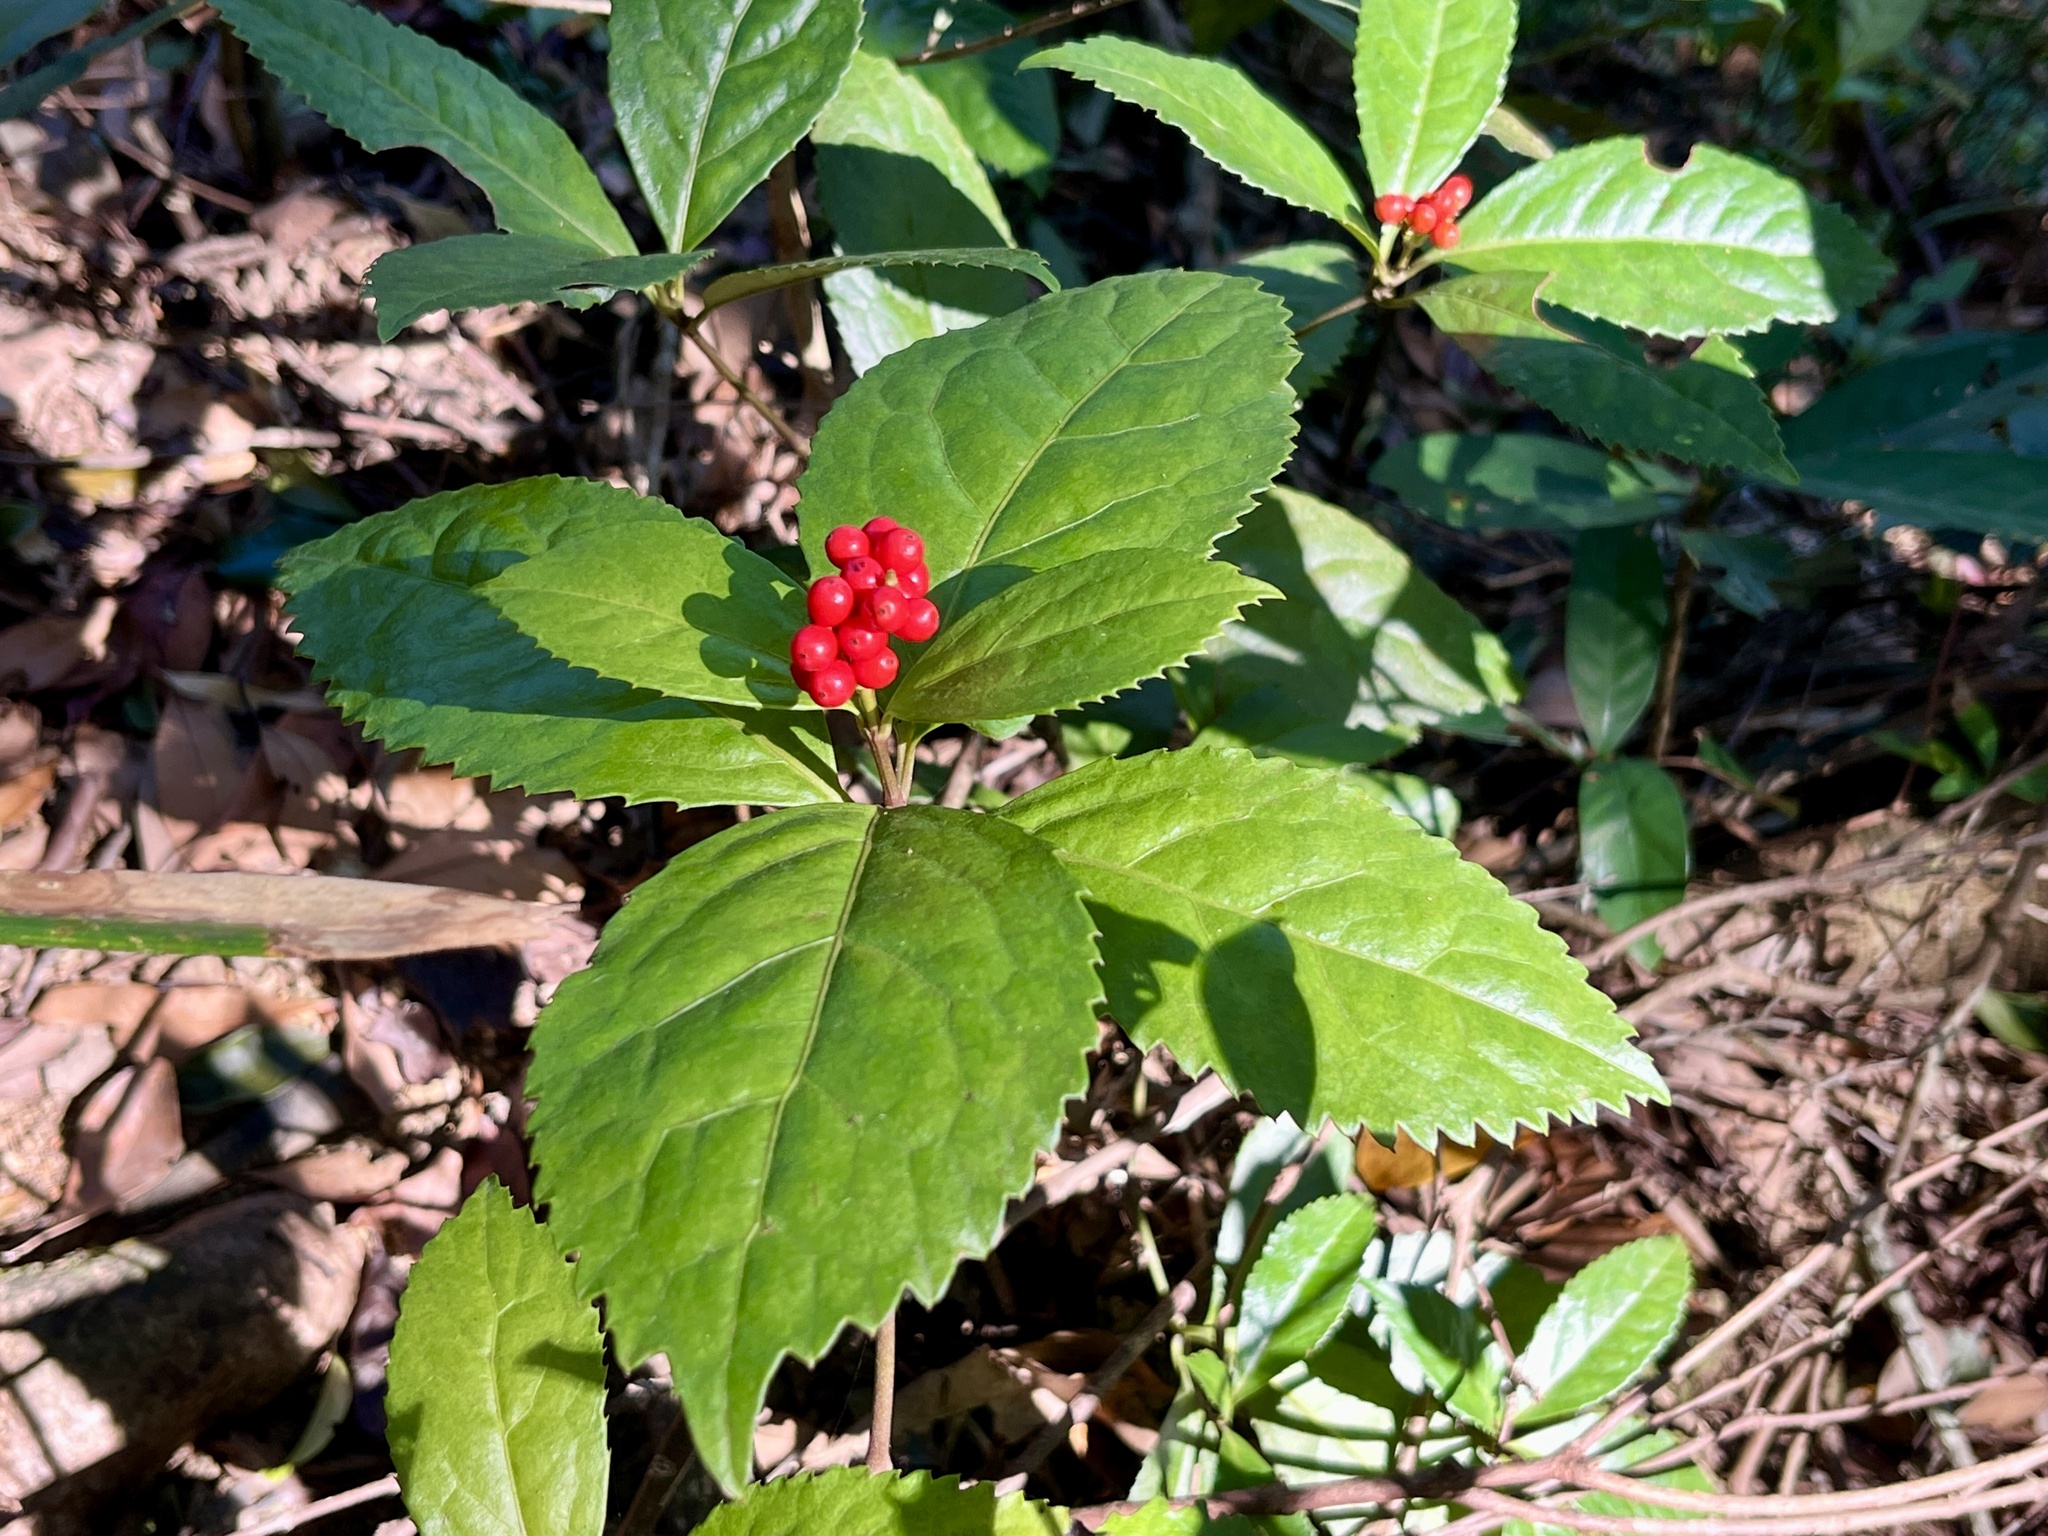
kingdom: Plantae
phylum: Tracheophyta
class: Magnoliopsida
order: Chloranthales
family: Chloranthaceae
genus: Sarcandra
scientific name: Sarcandra glabra
